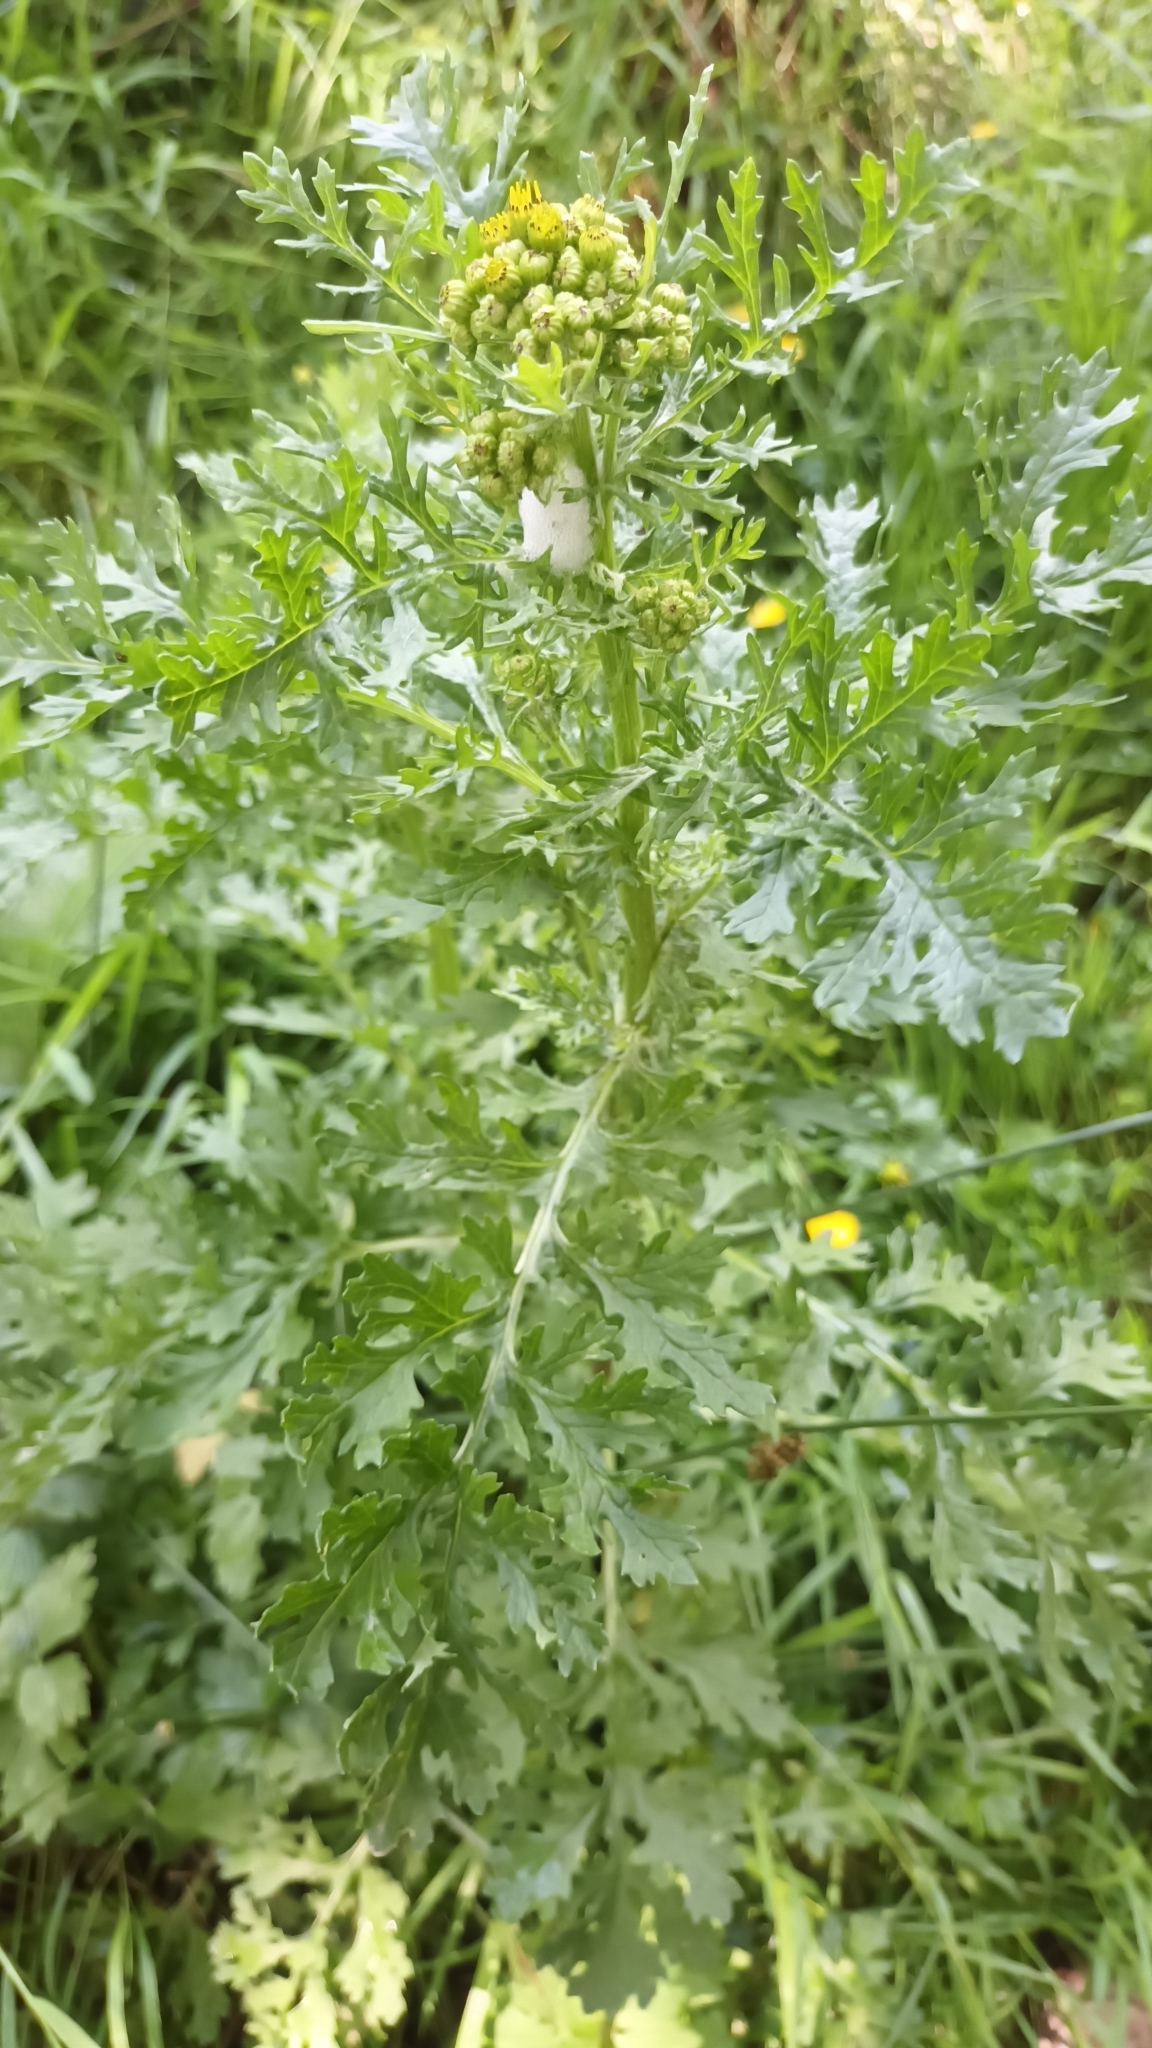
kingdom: Plantae
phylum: Tracheophyta
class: Magnoliopsida
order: Asterales
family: Asteraceae
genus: Jacobaea
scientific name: Jacobaea vulgaris
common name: Stinking willie
